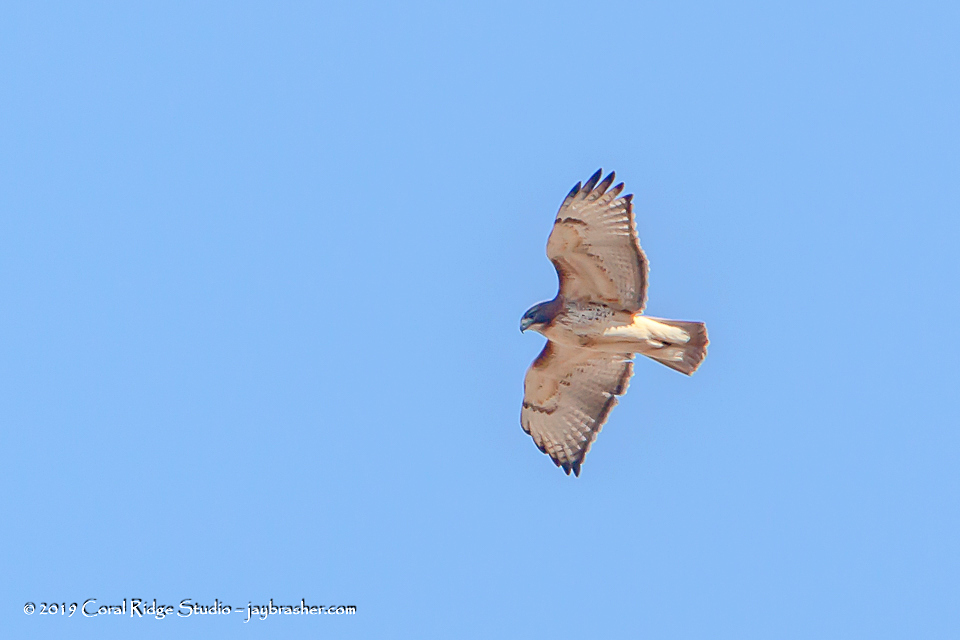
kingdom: Animalia
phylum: Chordata
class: Aves
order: Accipitriformes
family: Accipitridae
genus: Buteo
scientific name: Buteo jamaicensis
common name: Red-tailed hawk
